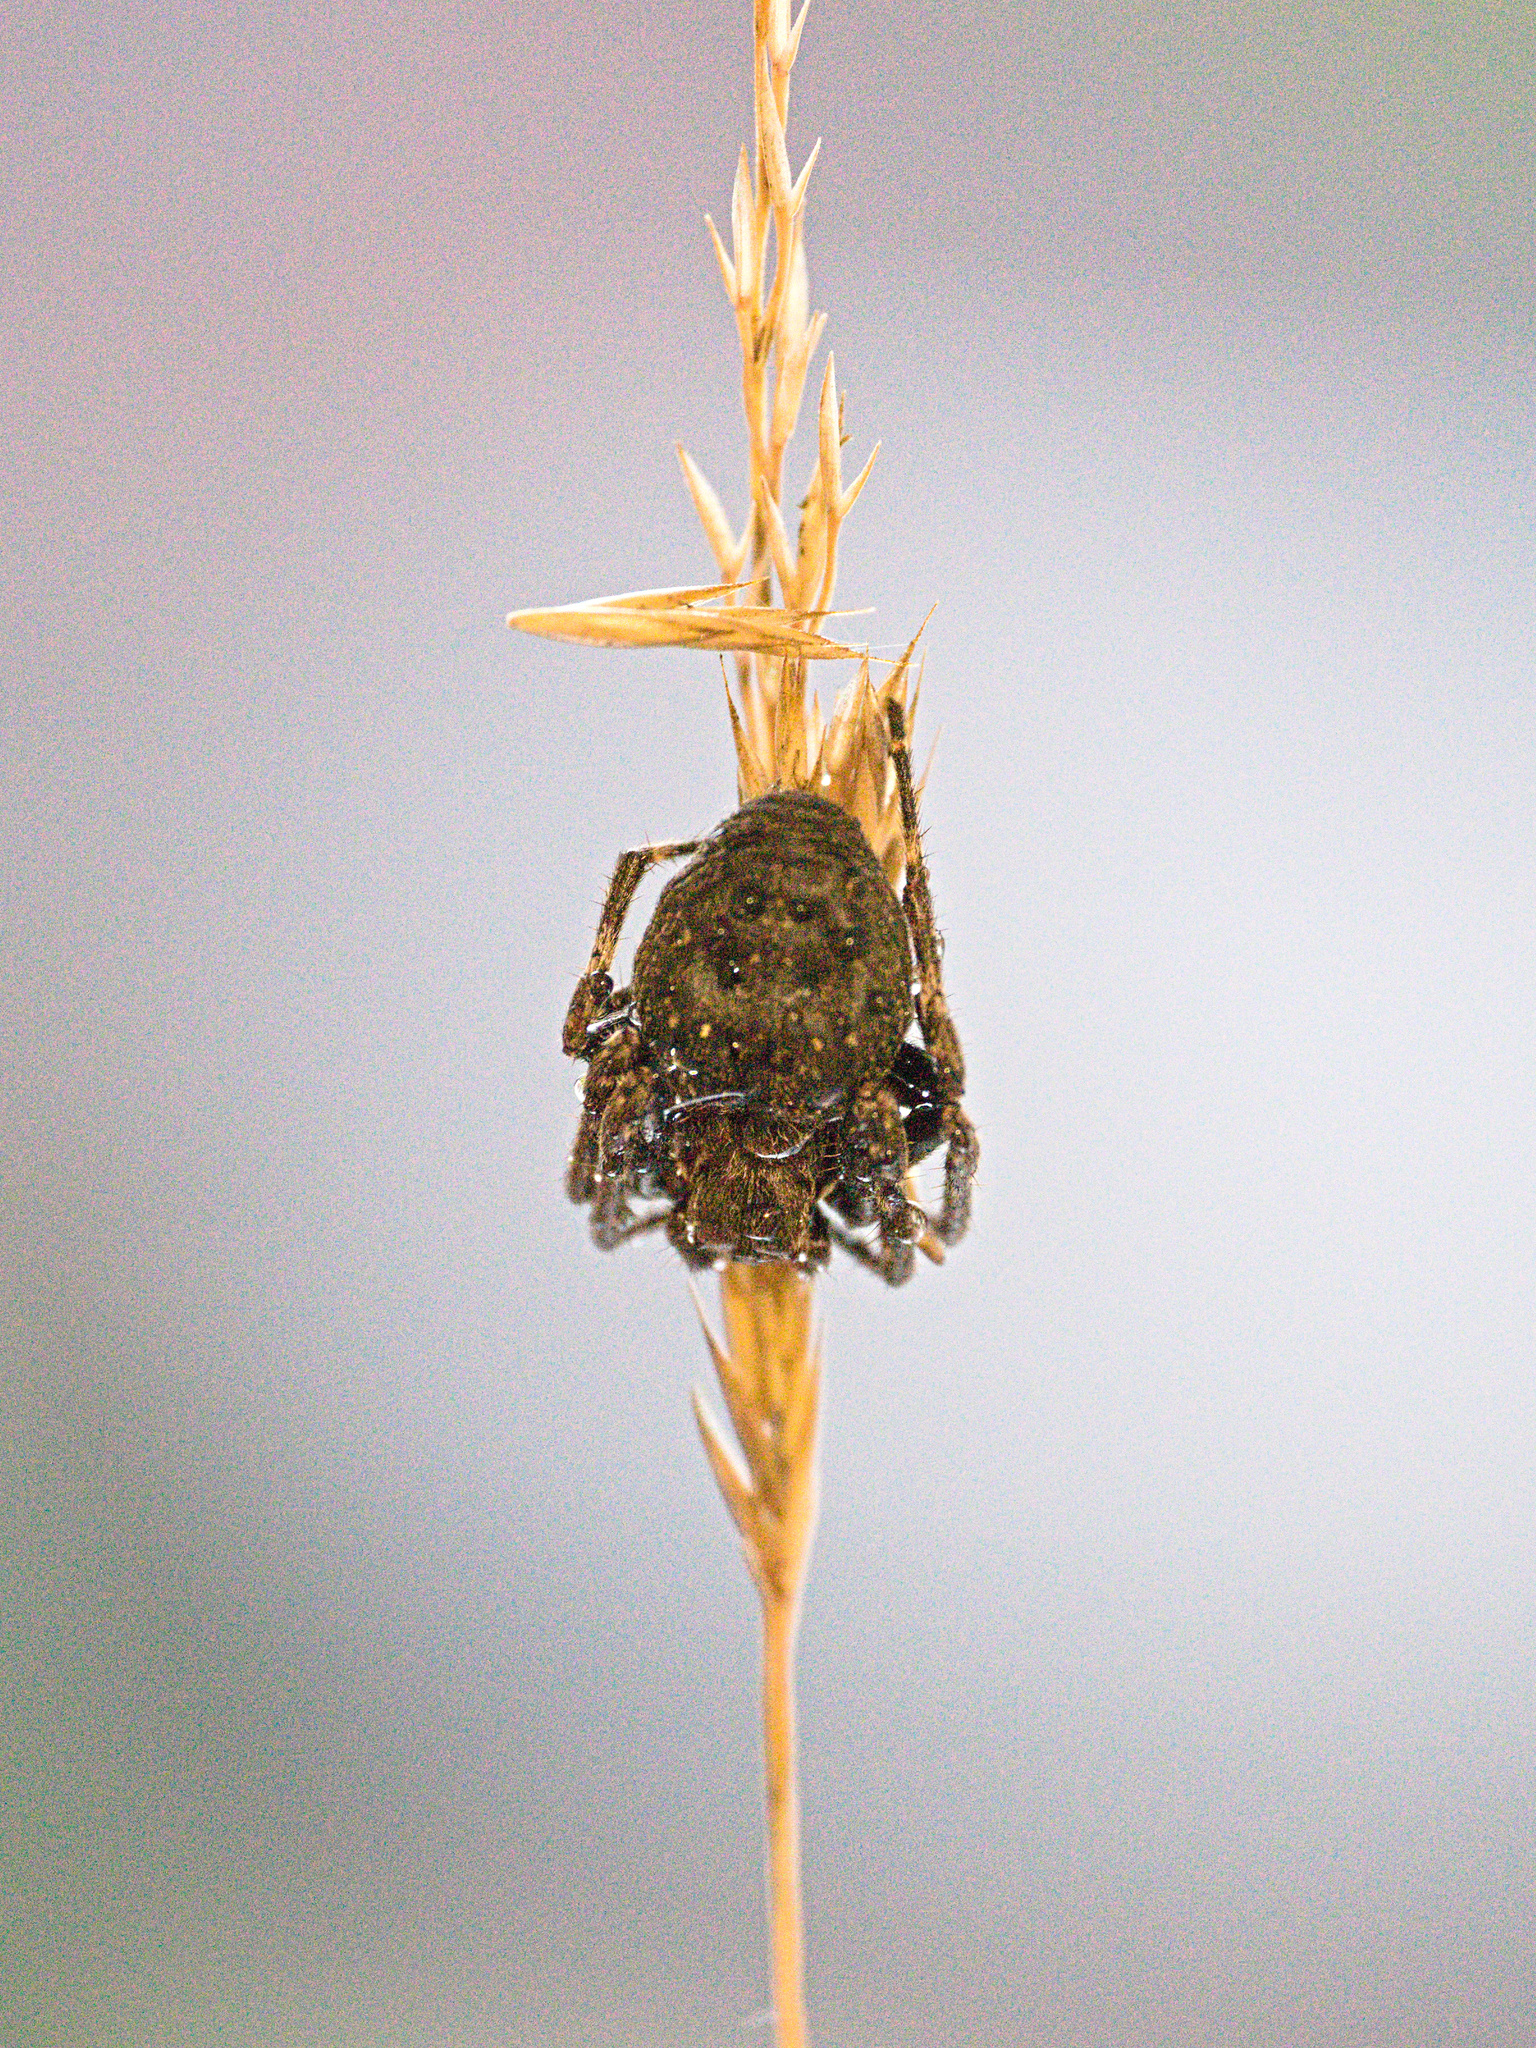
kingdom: Animalia
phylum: Arthropoda
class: Arachnida
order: Araneae
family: Araneidae
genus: Nuctenea
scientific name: Nuctenea umbratica
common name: Toad spider
